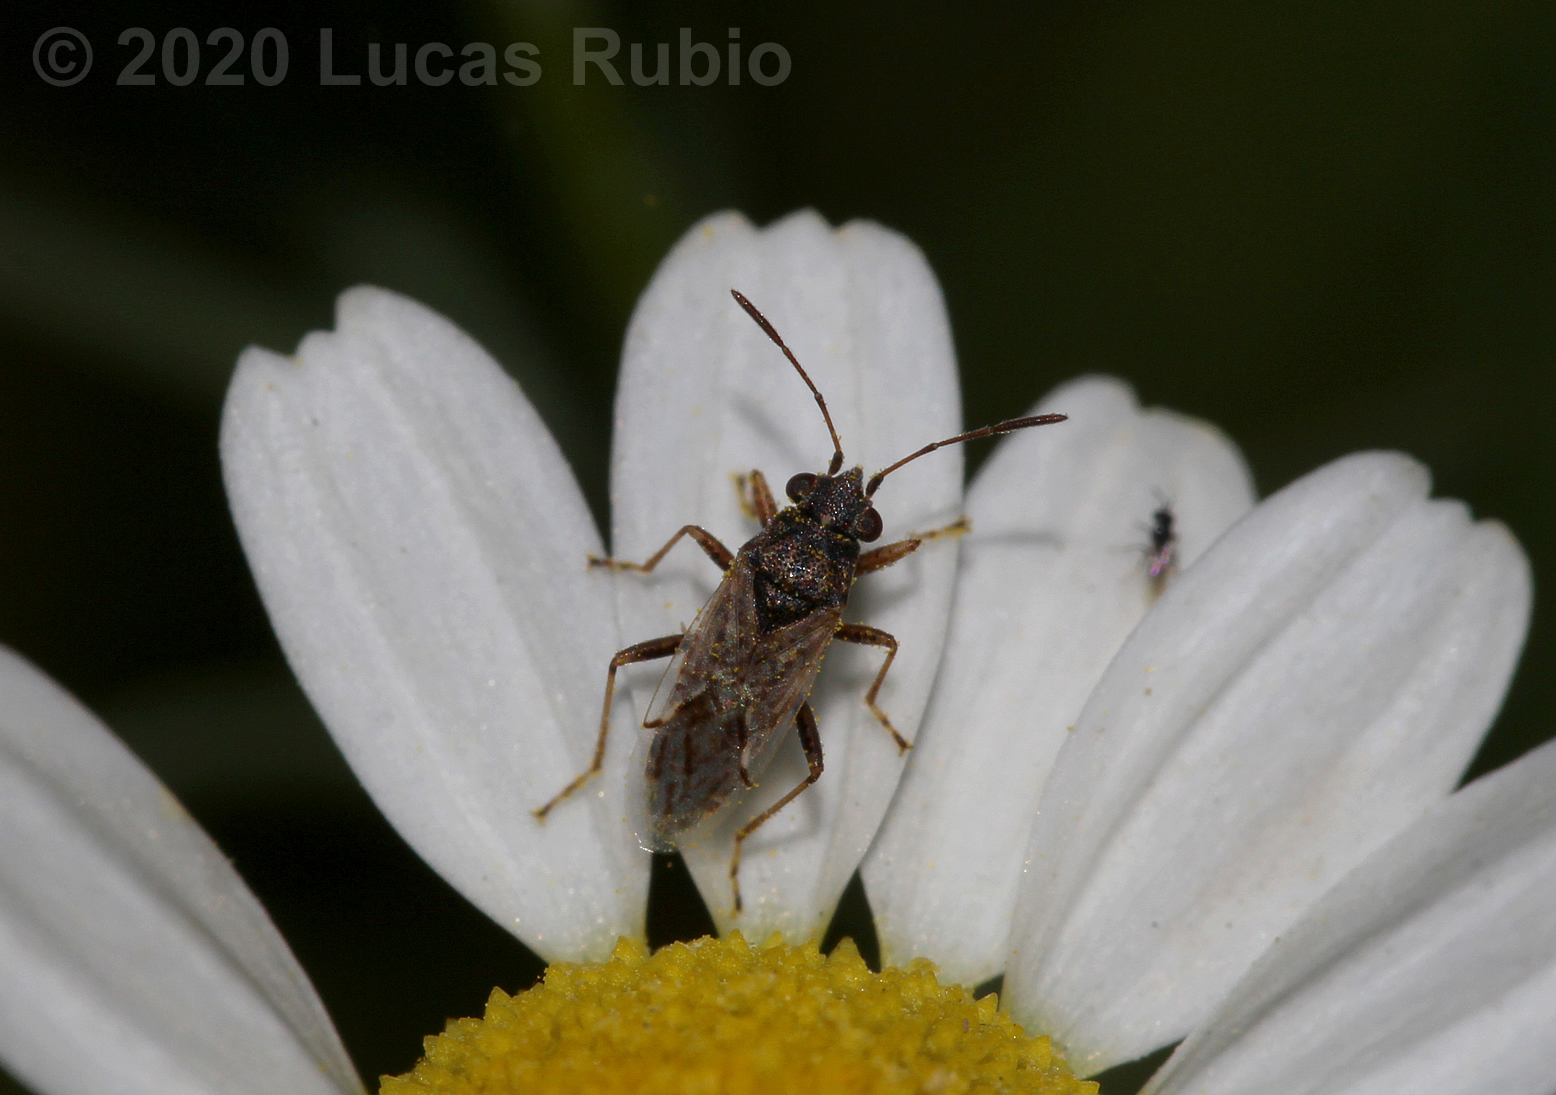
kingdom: Animalia
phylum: Arthropoda
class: Insecta
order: Hemiptera
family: Lygaeidae
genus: Nysius
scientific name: Nysius simulans
